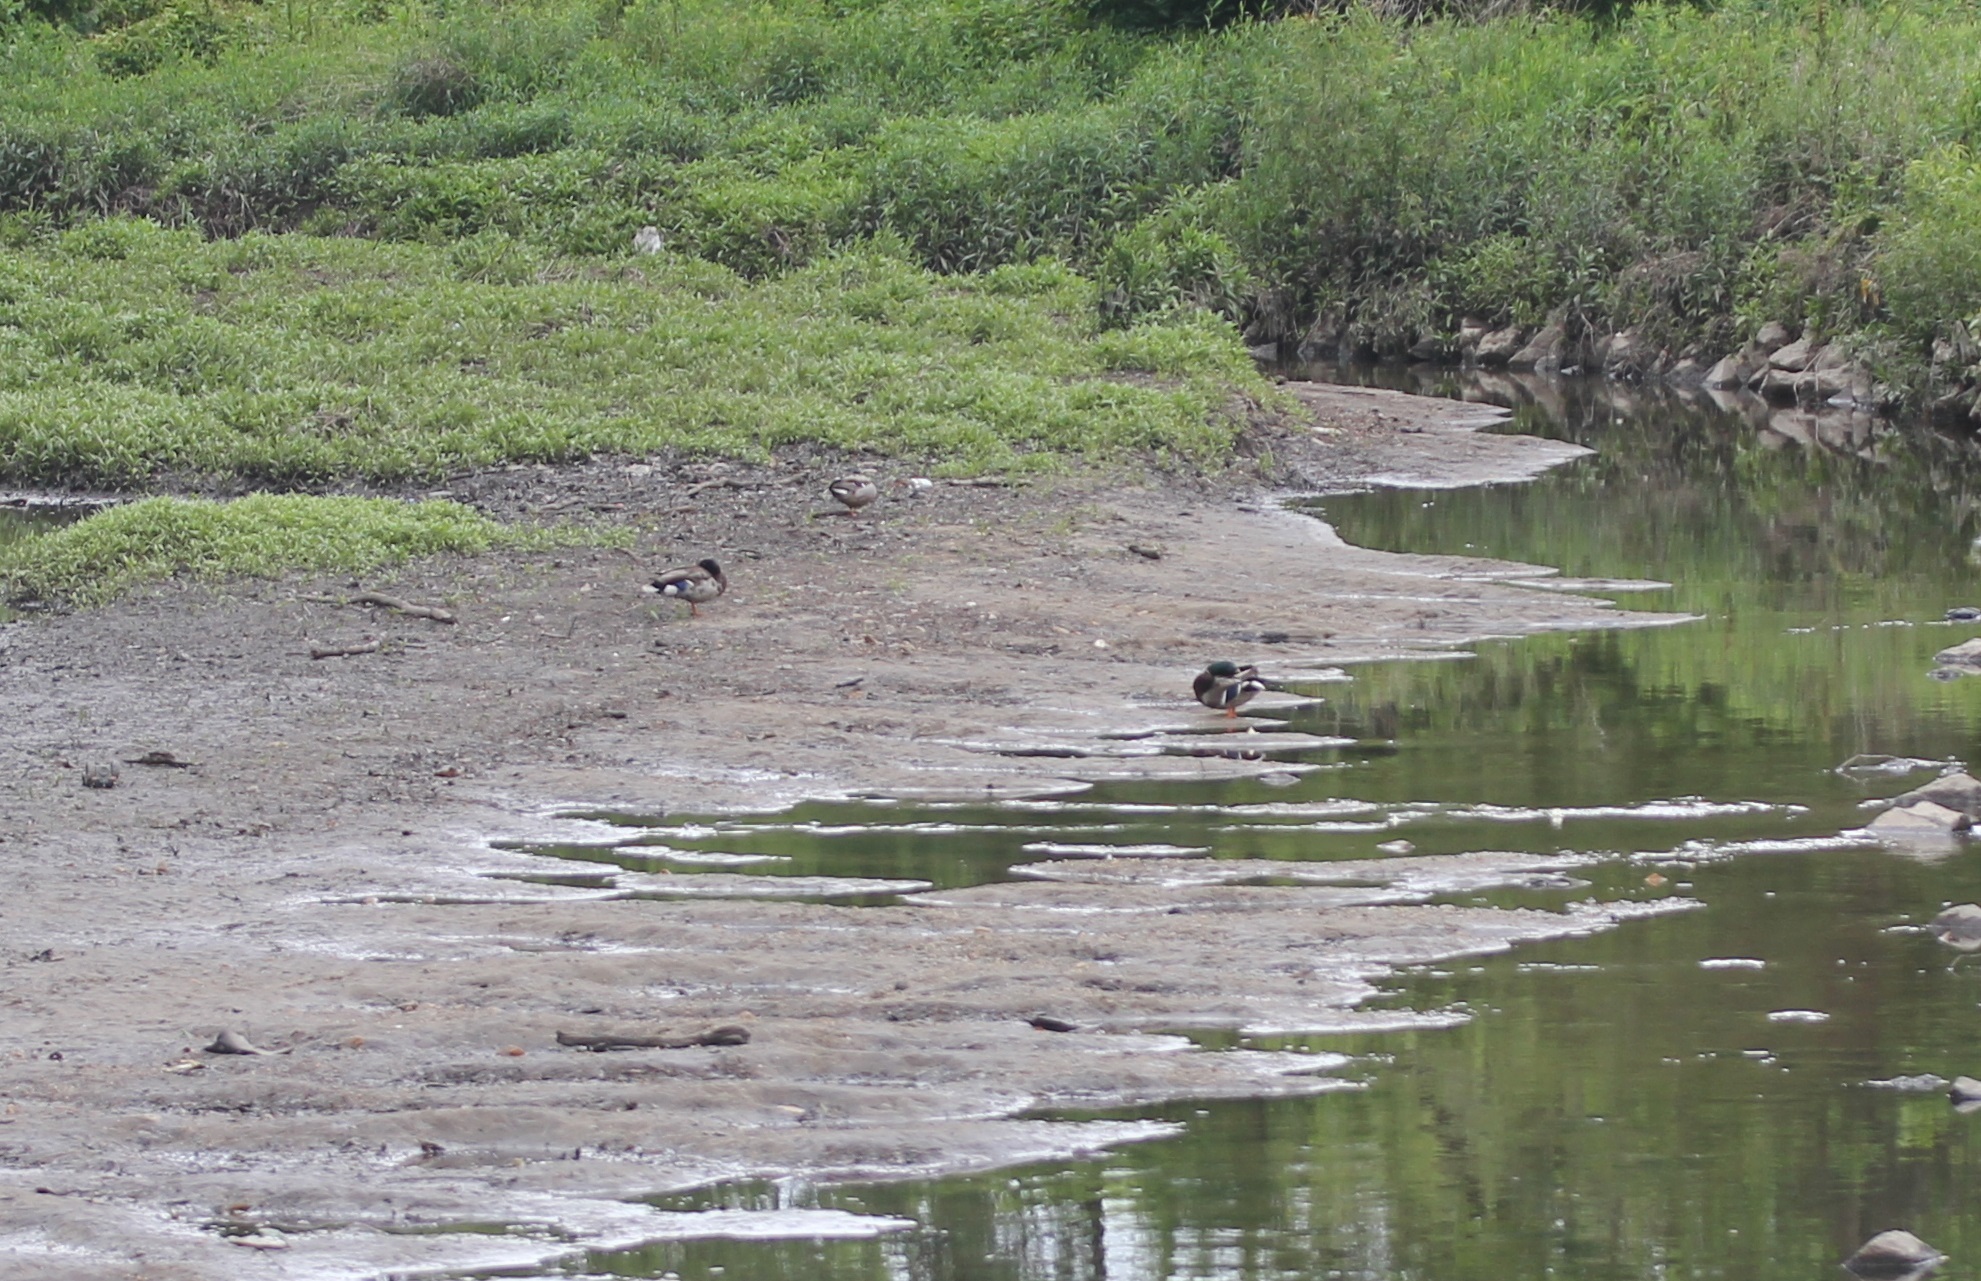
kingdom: Animalia
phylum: Chordata
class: Aves
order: Anseriformes
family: Anatidae
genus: Anas
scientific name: Anas platyrhynchos
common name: Mallard
